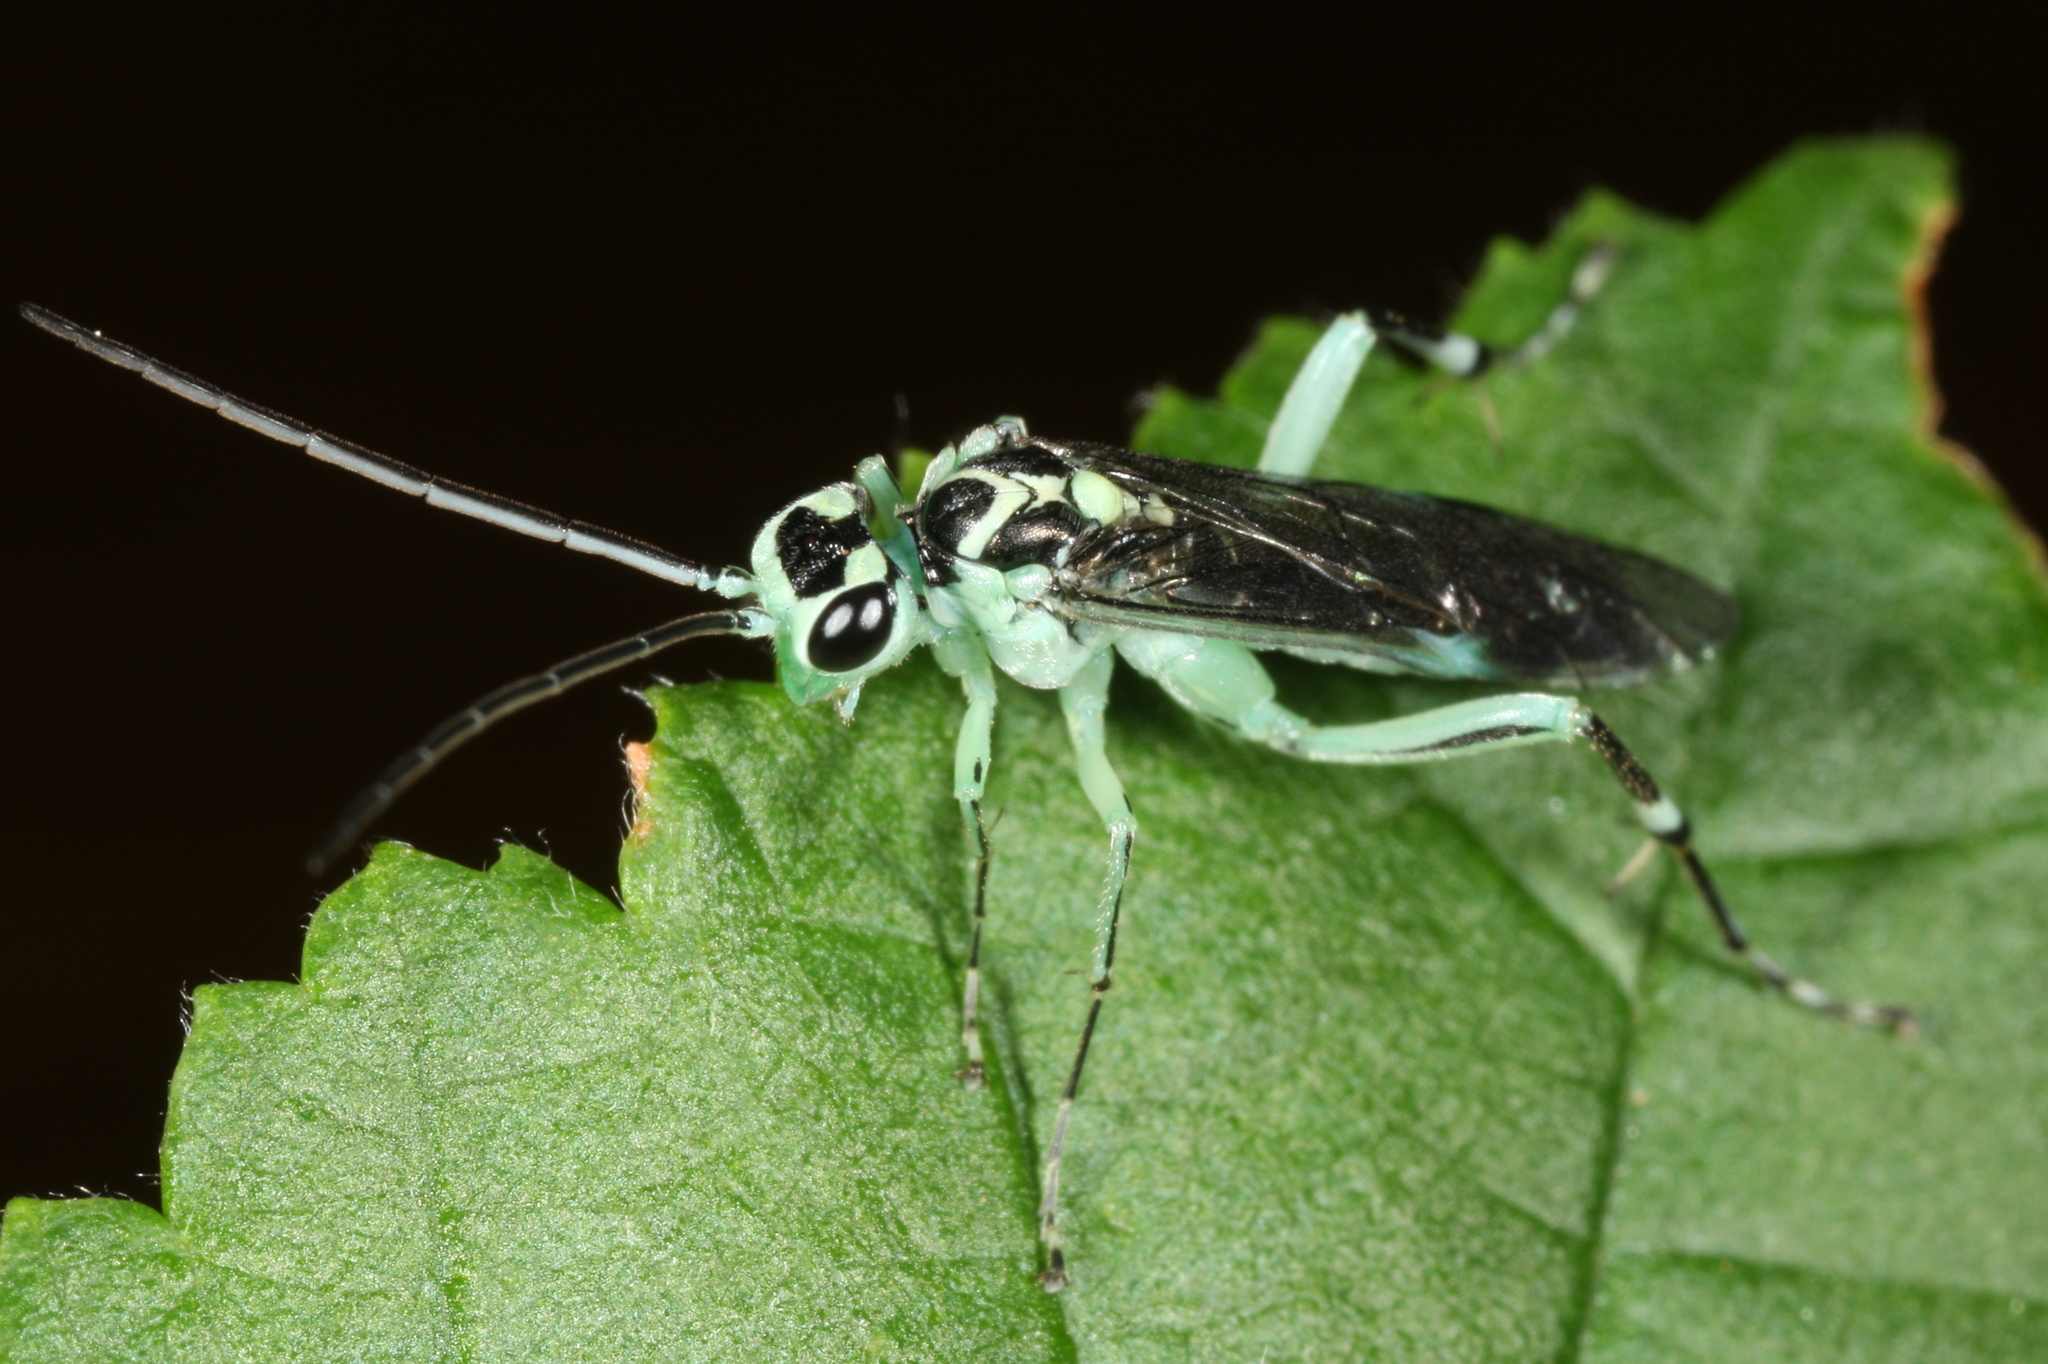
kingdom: Animalia
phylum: Arthropoda
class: Insecta
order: Hymenoptera
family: Tenthredinidae
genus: Pachyprotasis
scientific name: Pachyprotasis antennata
